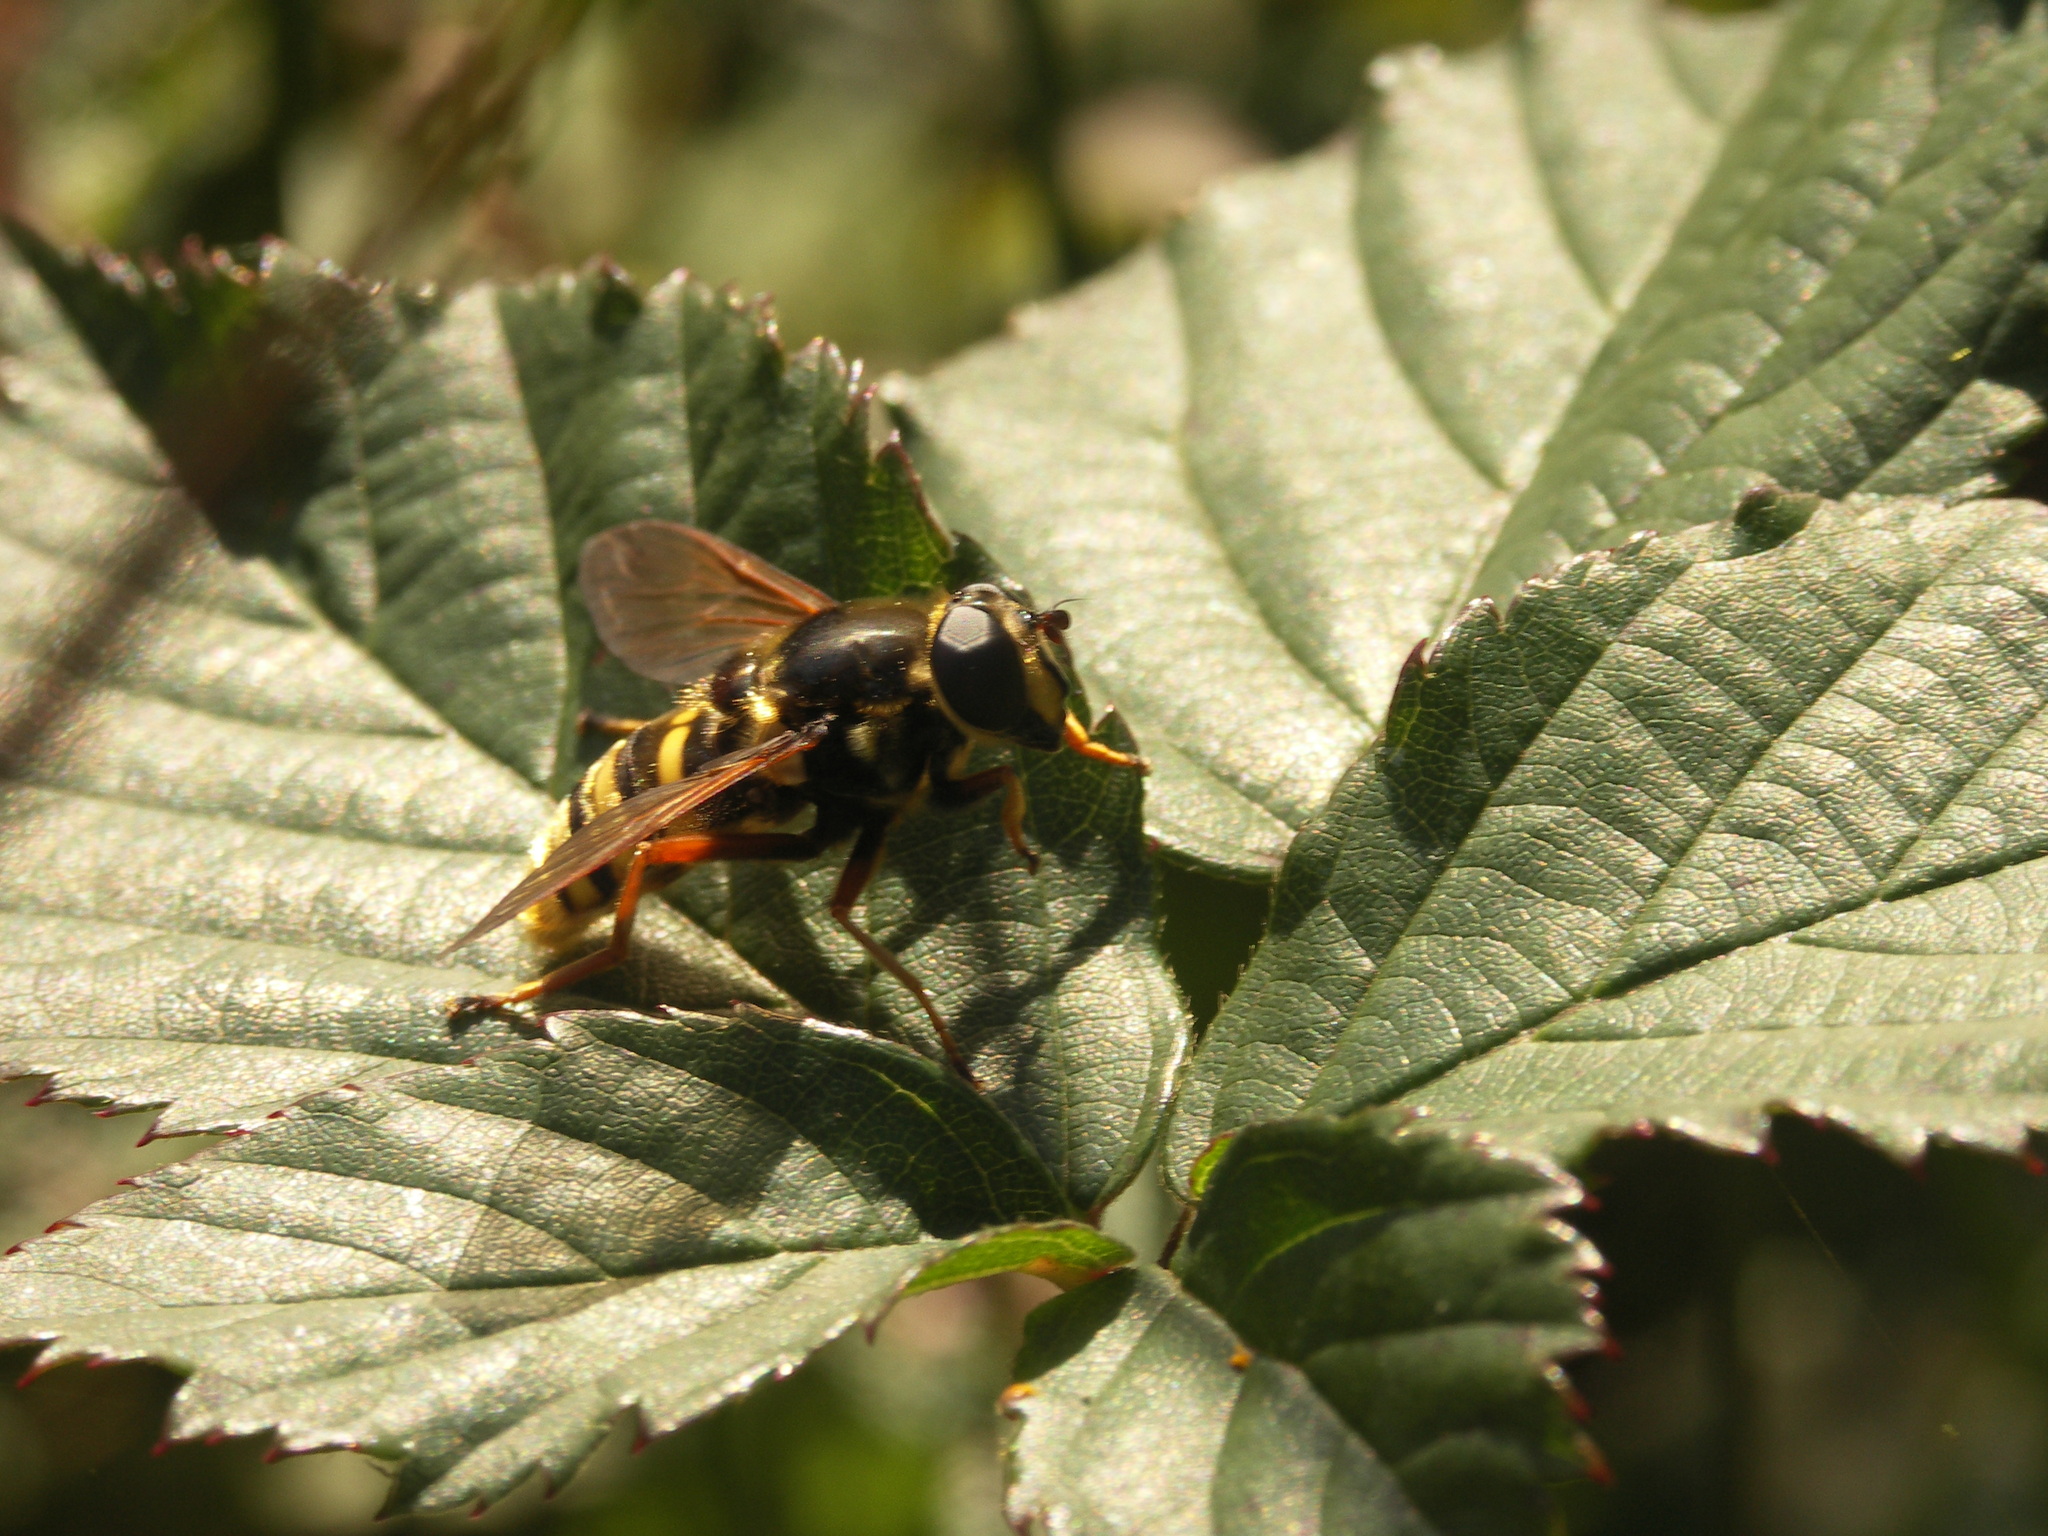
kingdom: Animalia
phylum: Arthropoda
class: Insecta
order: Diptera
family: Syrphidae
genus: Sericomyia
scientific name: Sericomyia silentis
